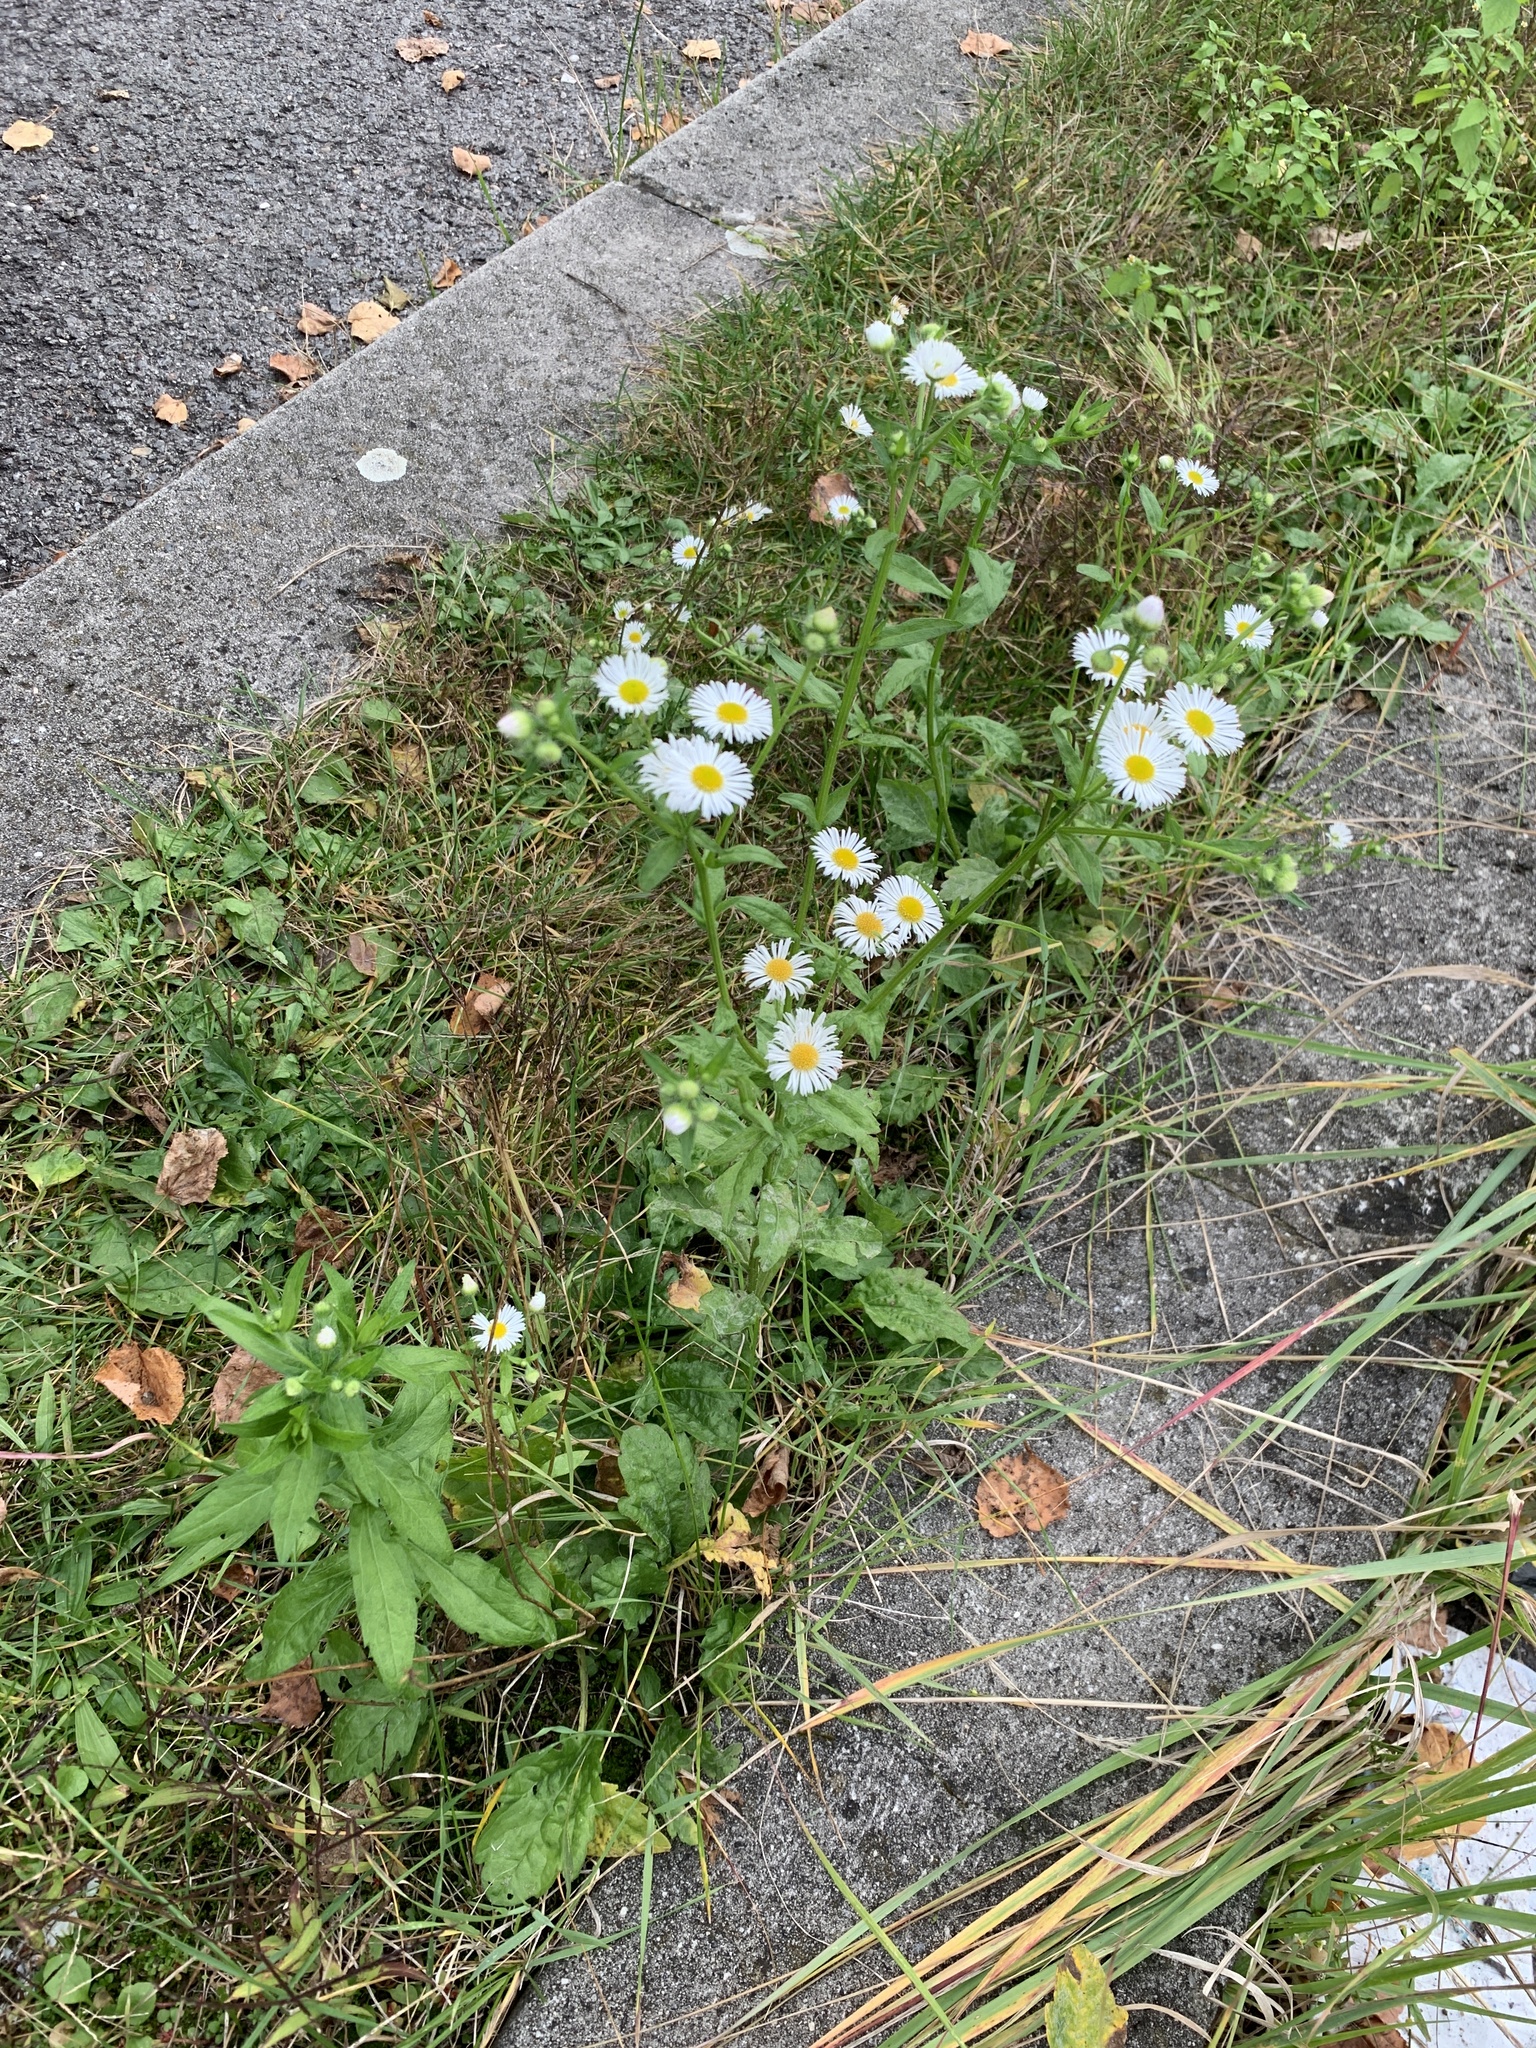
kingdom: Plantae
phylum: Tracheophyta
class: Magnoliopsida
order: Asterales
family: Asteraceae
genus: Erigeron
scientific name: Erigeron annuus
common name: Tall fleabane
